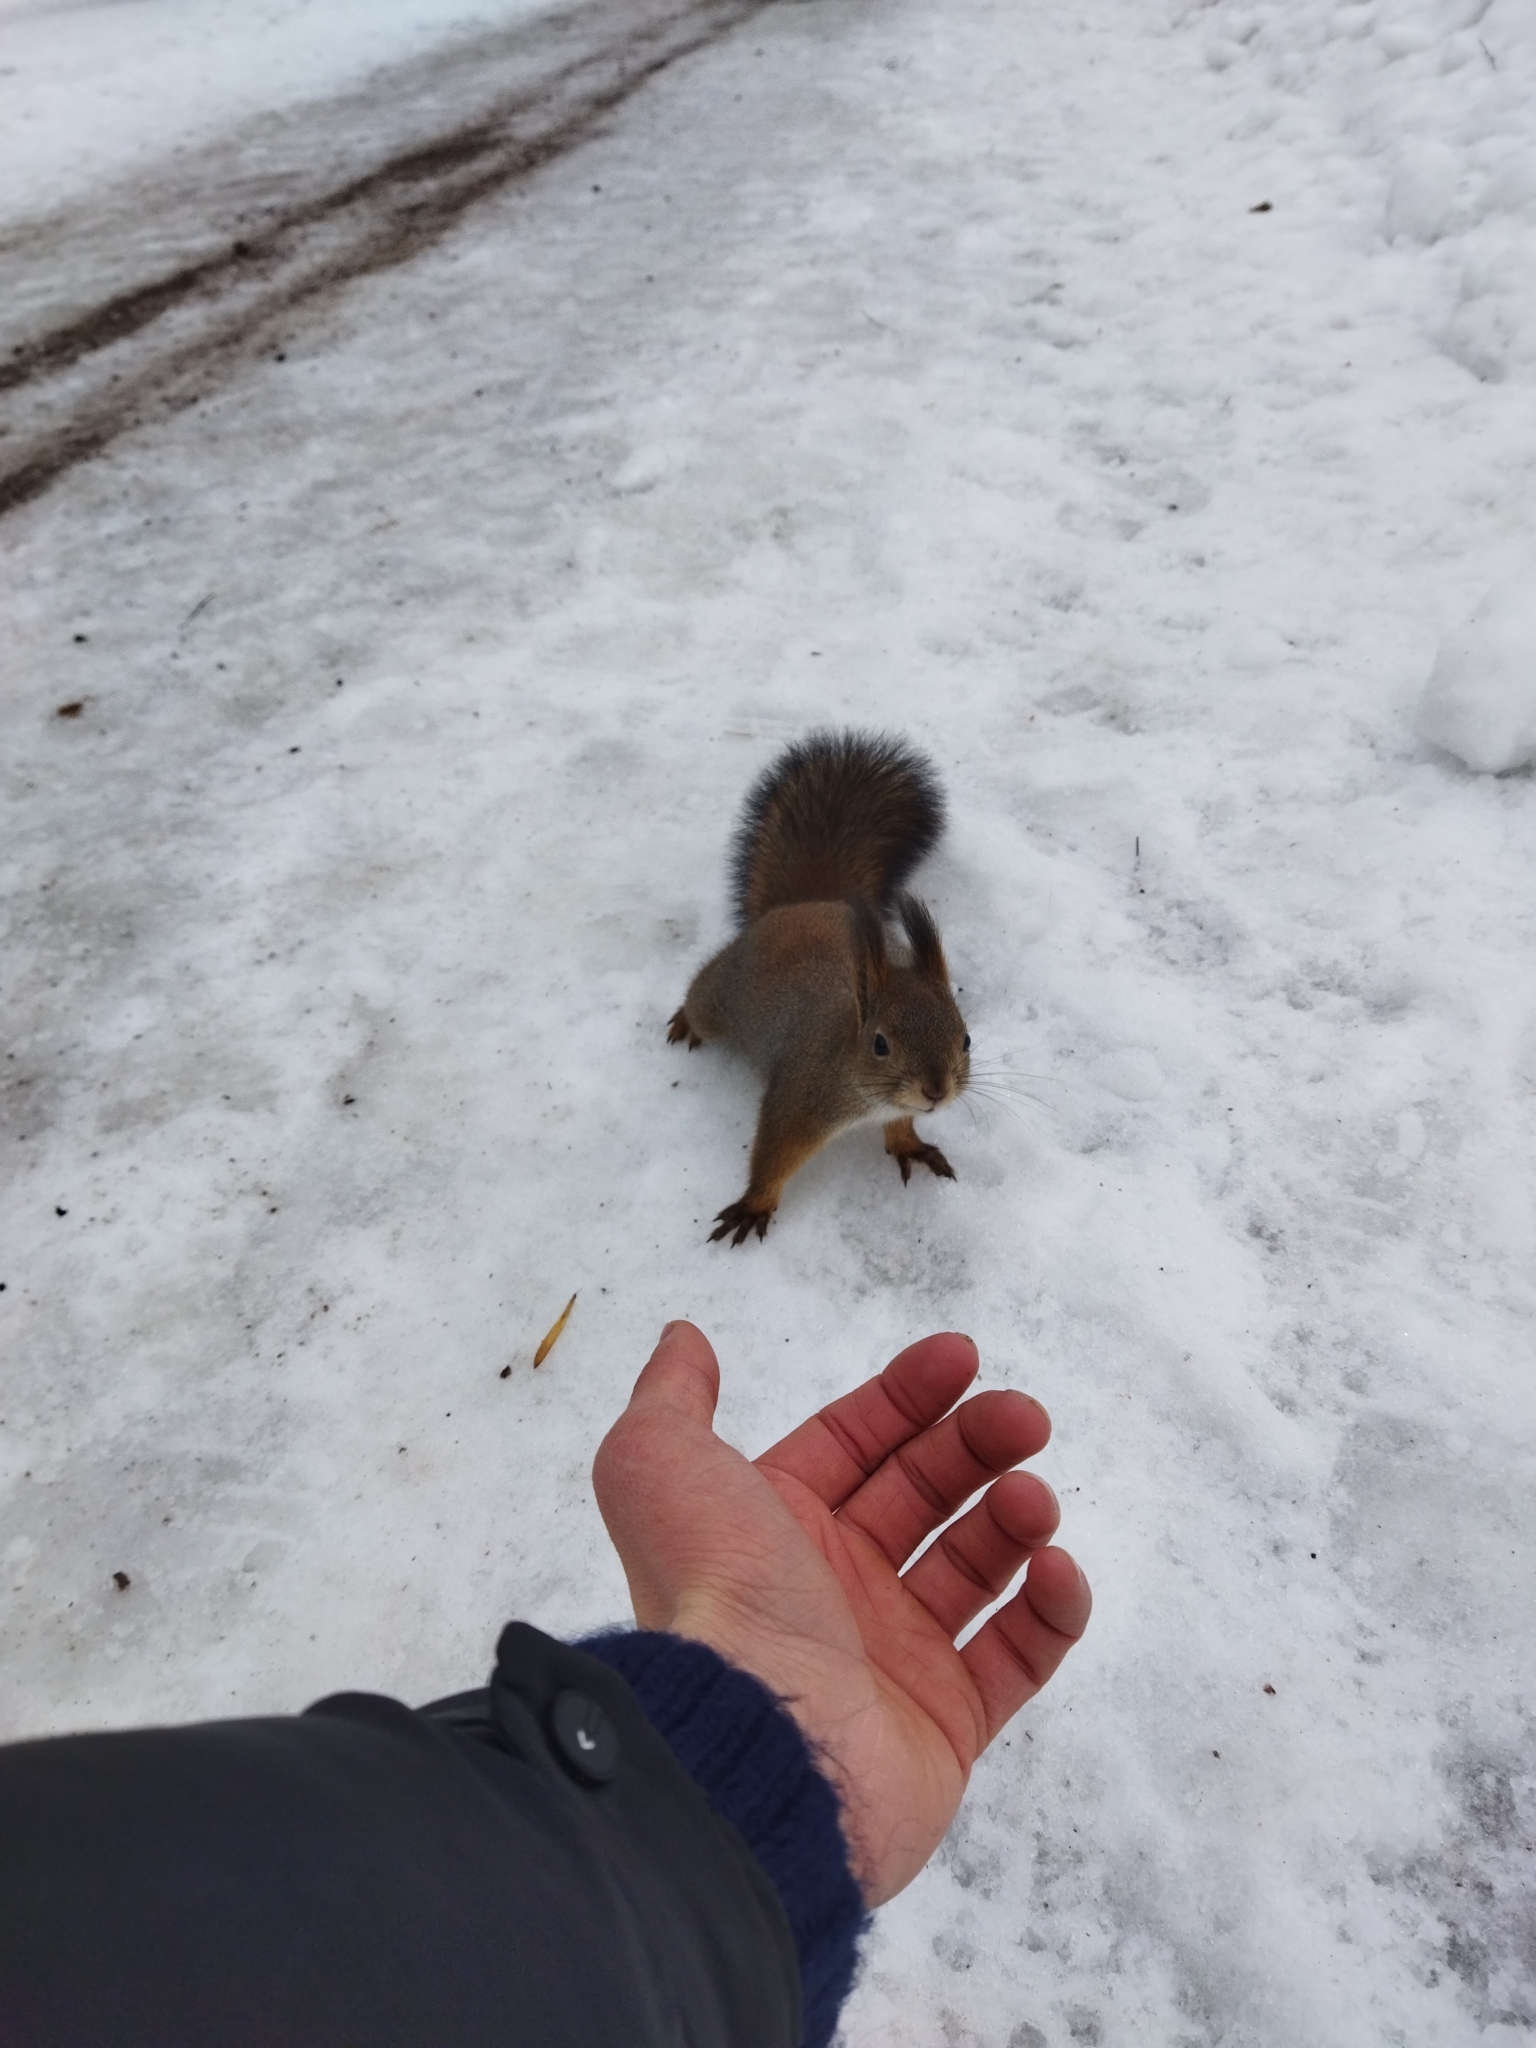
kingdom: Animalia
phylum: Chordata
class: Mammalia
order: Rodentia
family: Sciuridae
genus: Sciurus
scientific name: Sciurus vulgaris
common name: Eurasian red squirrel
